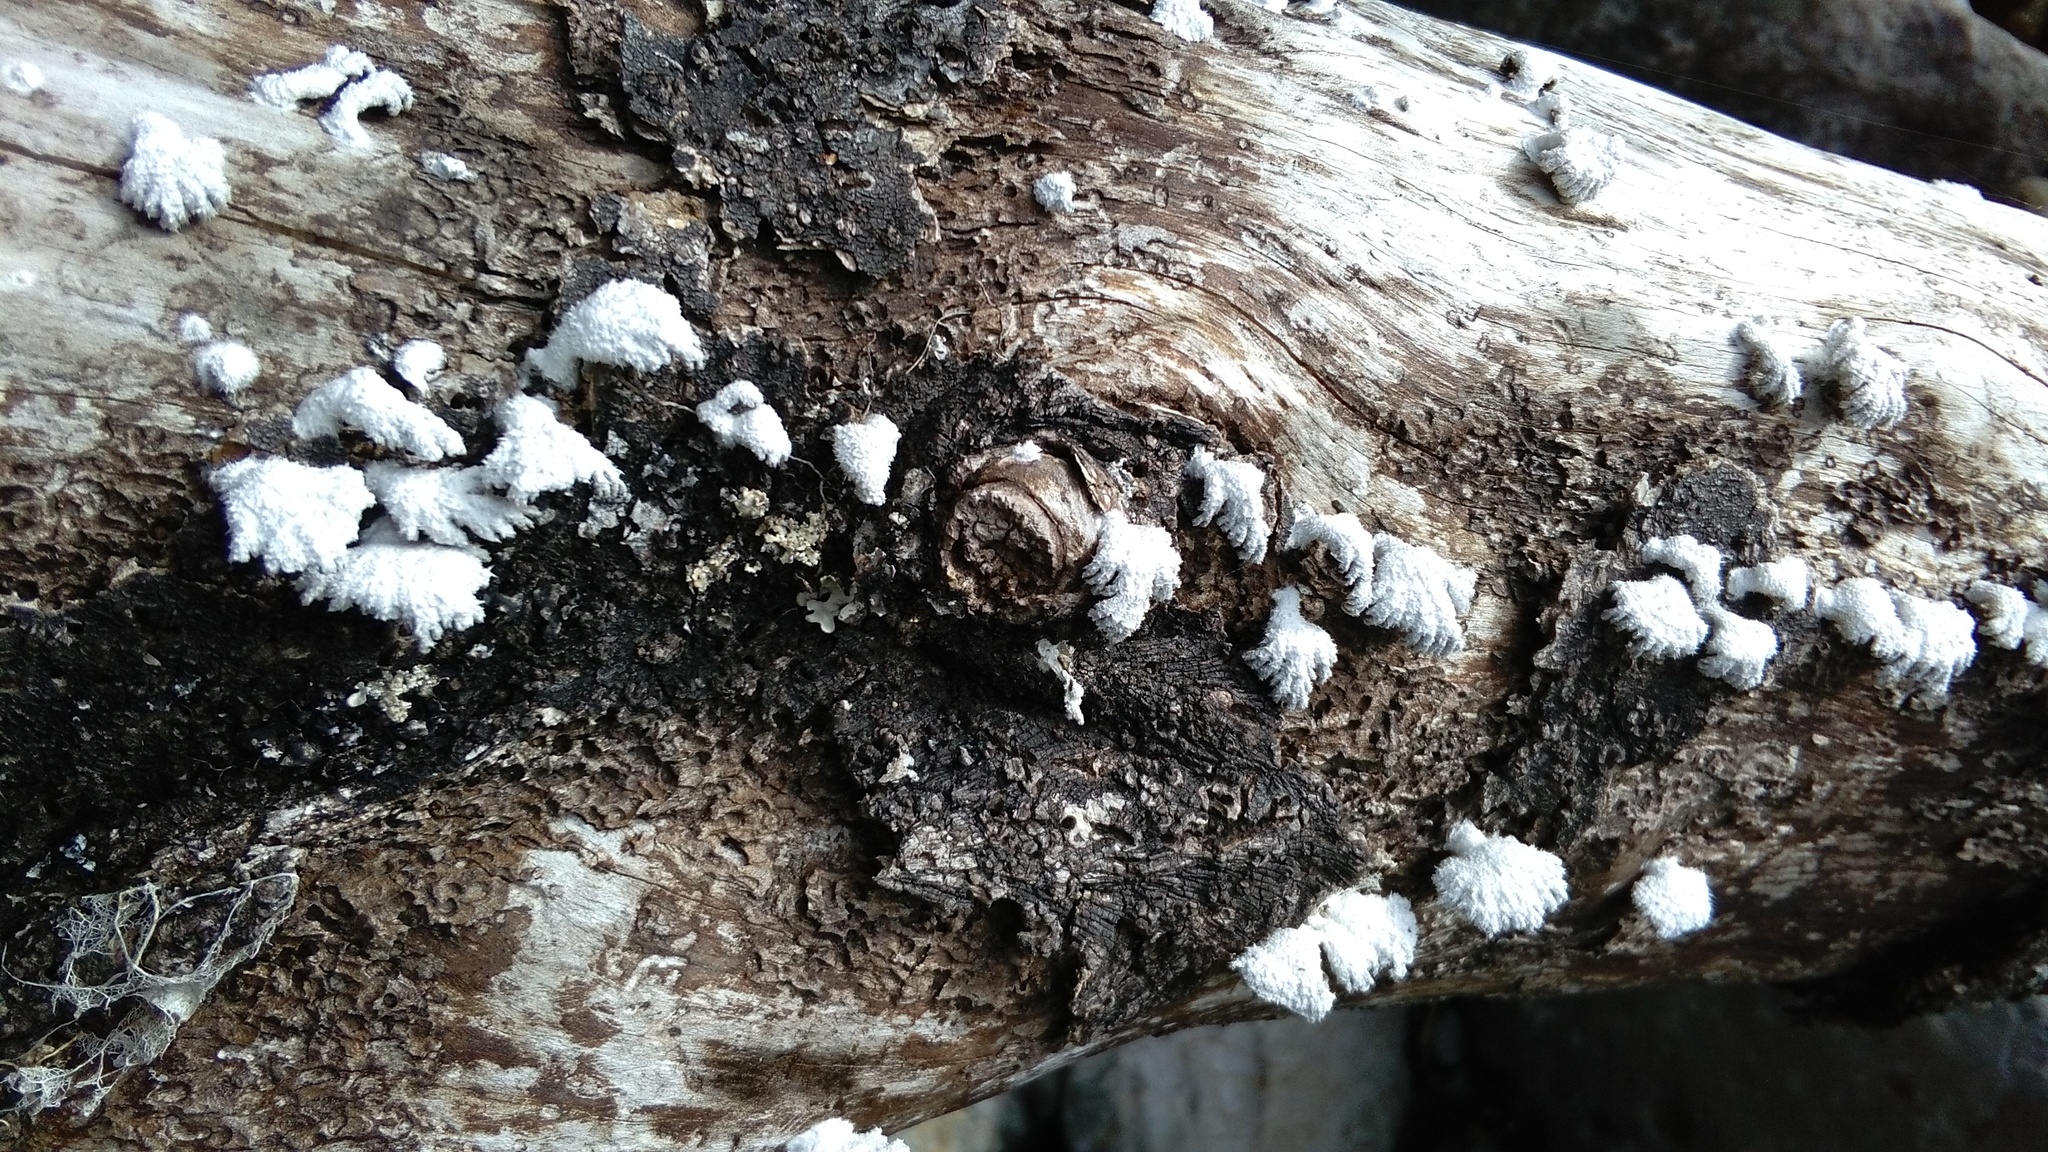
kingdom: Fungi
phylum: Basidiomycota
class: Agaricomycetes
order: Agaricales
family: Schizophyllaceae
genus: Schizophyllum
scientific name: Schizophyllum commune
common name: Common porecrust
